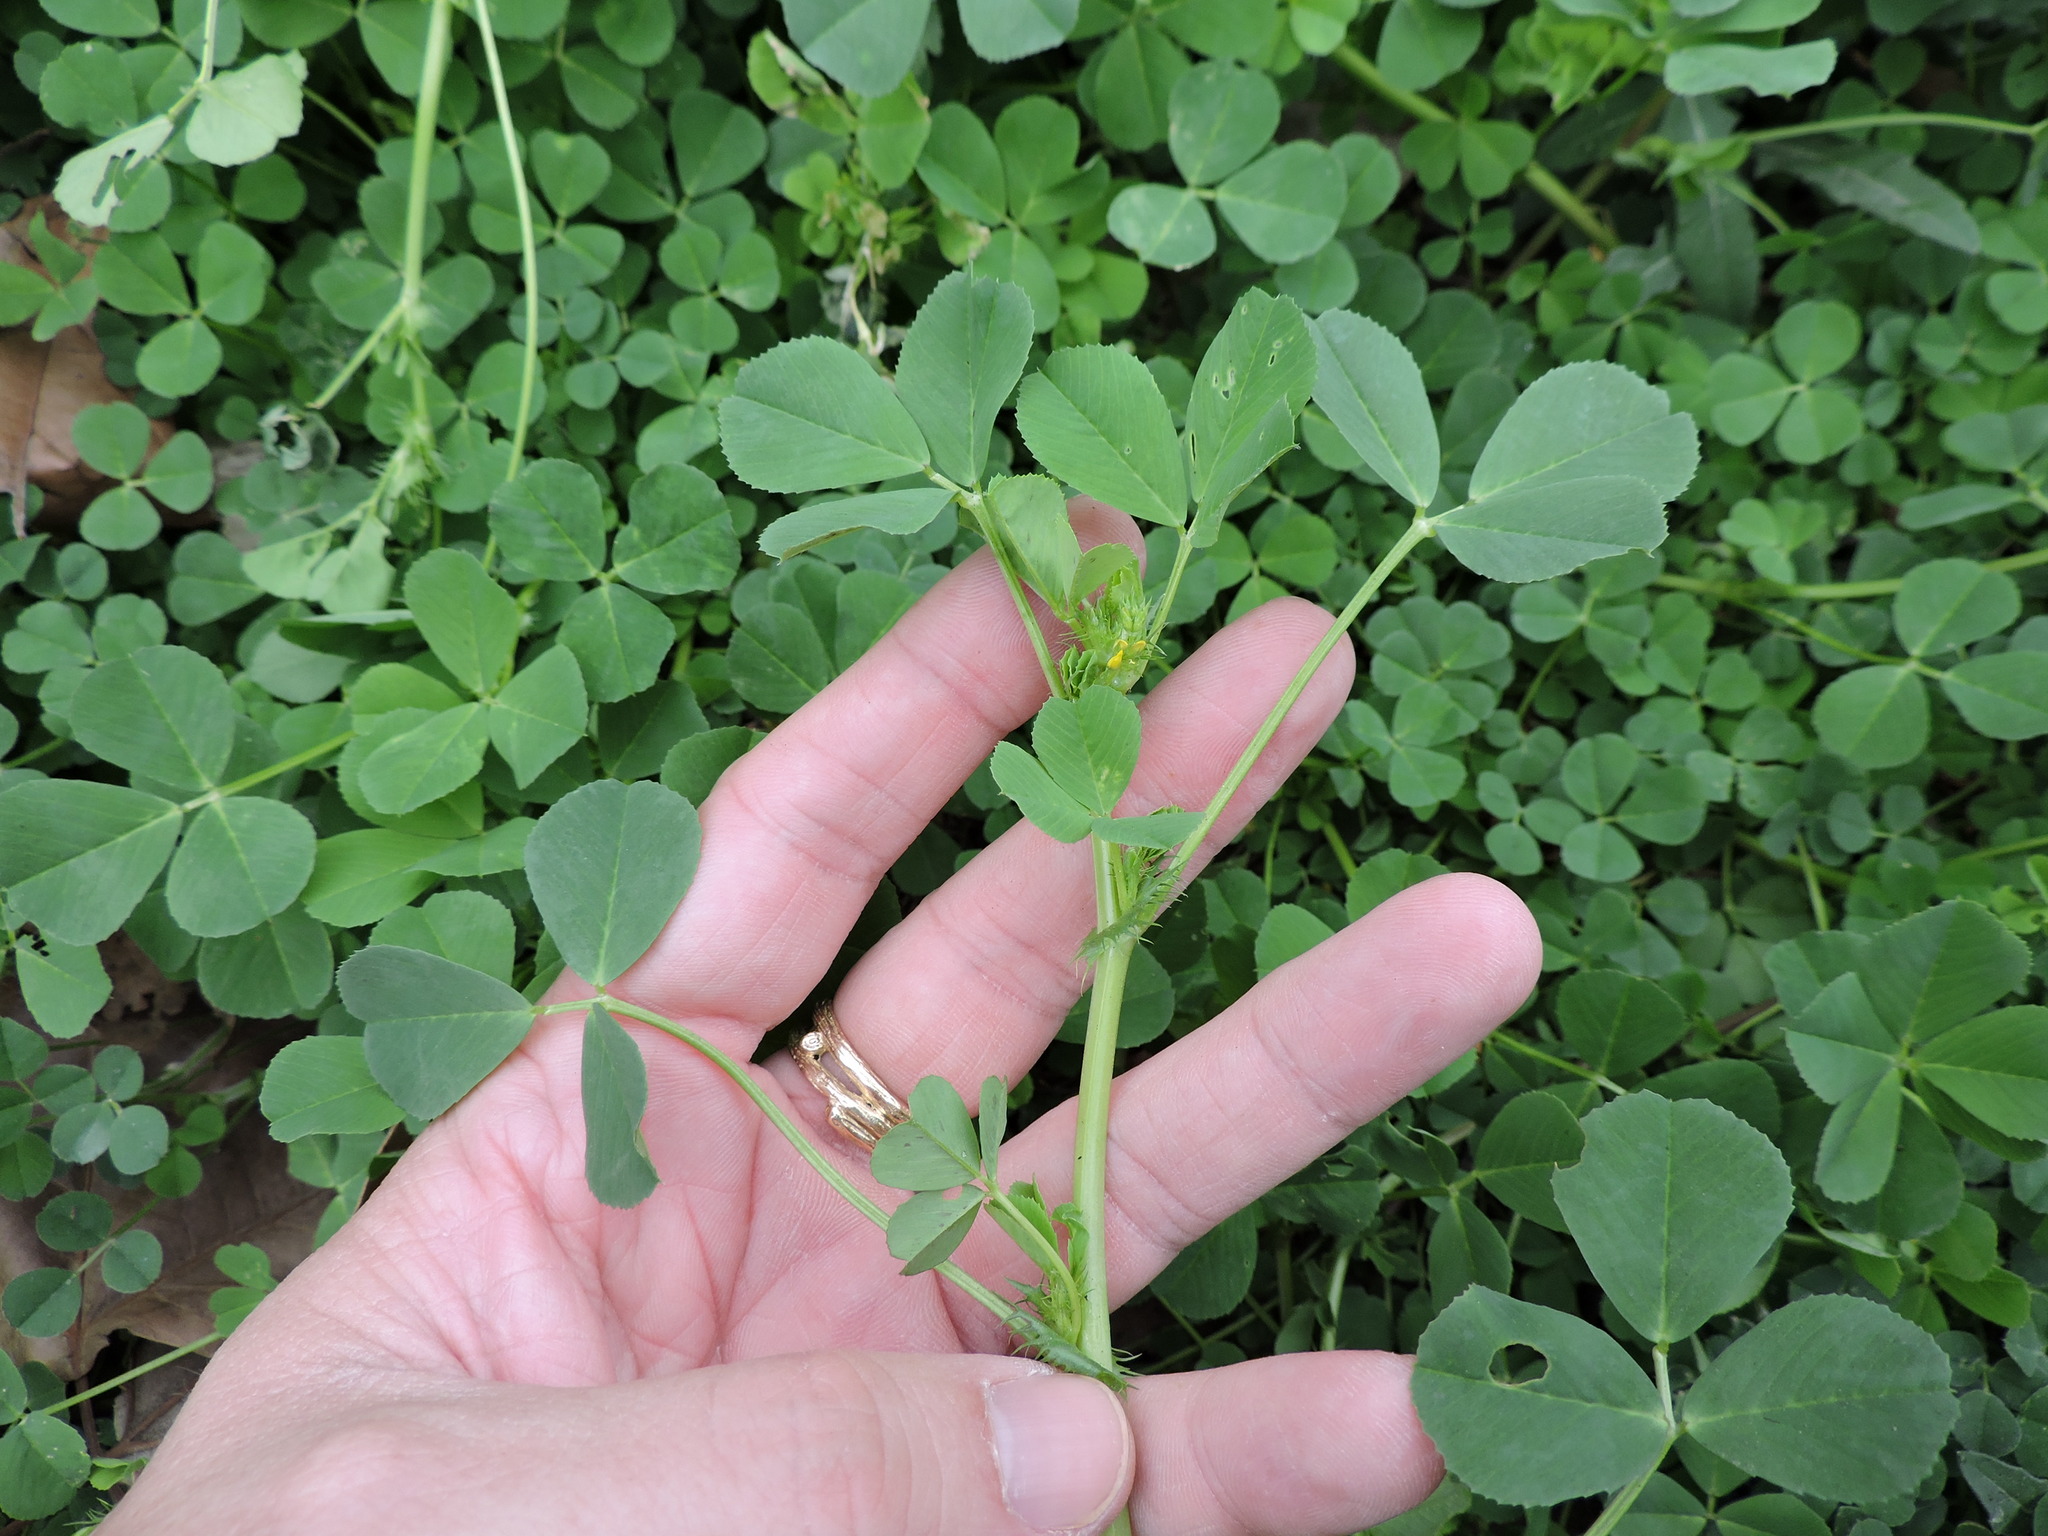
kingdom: Plantae
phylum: Tracheophyta
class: Magnoliopsida
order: Fabales
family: Fabaceae
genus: Medicago
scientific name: Medicago polymorpha
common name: Burclover
